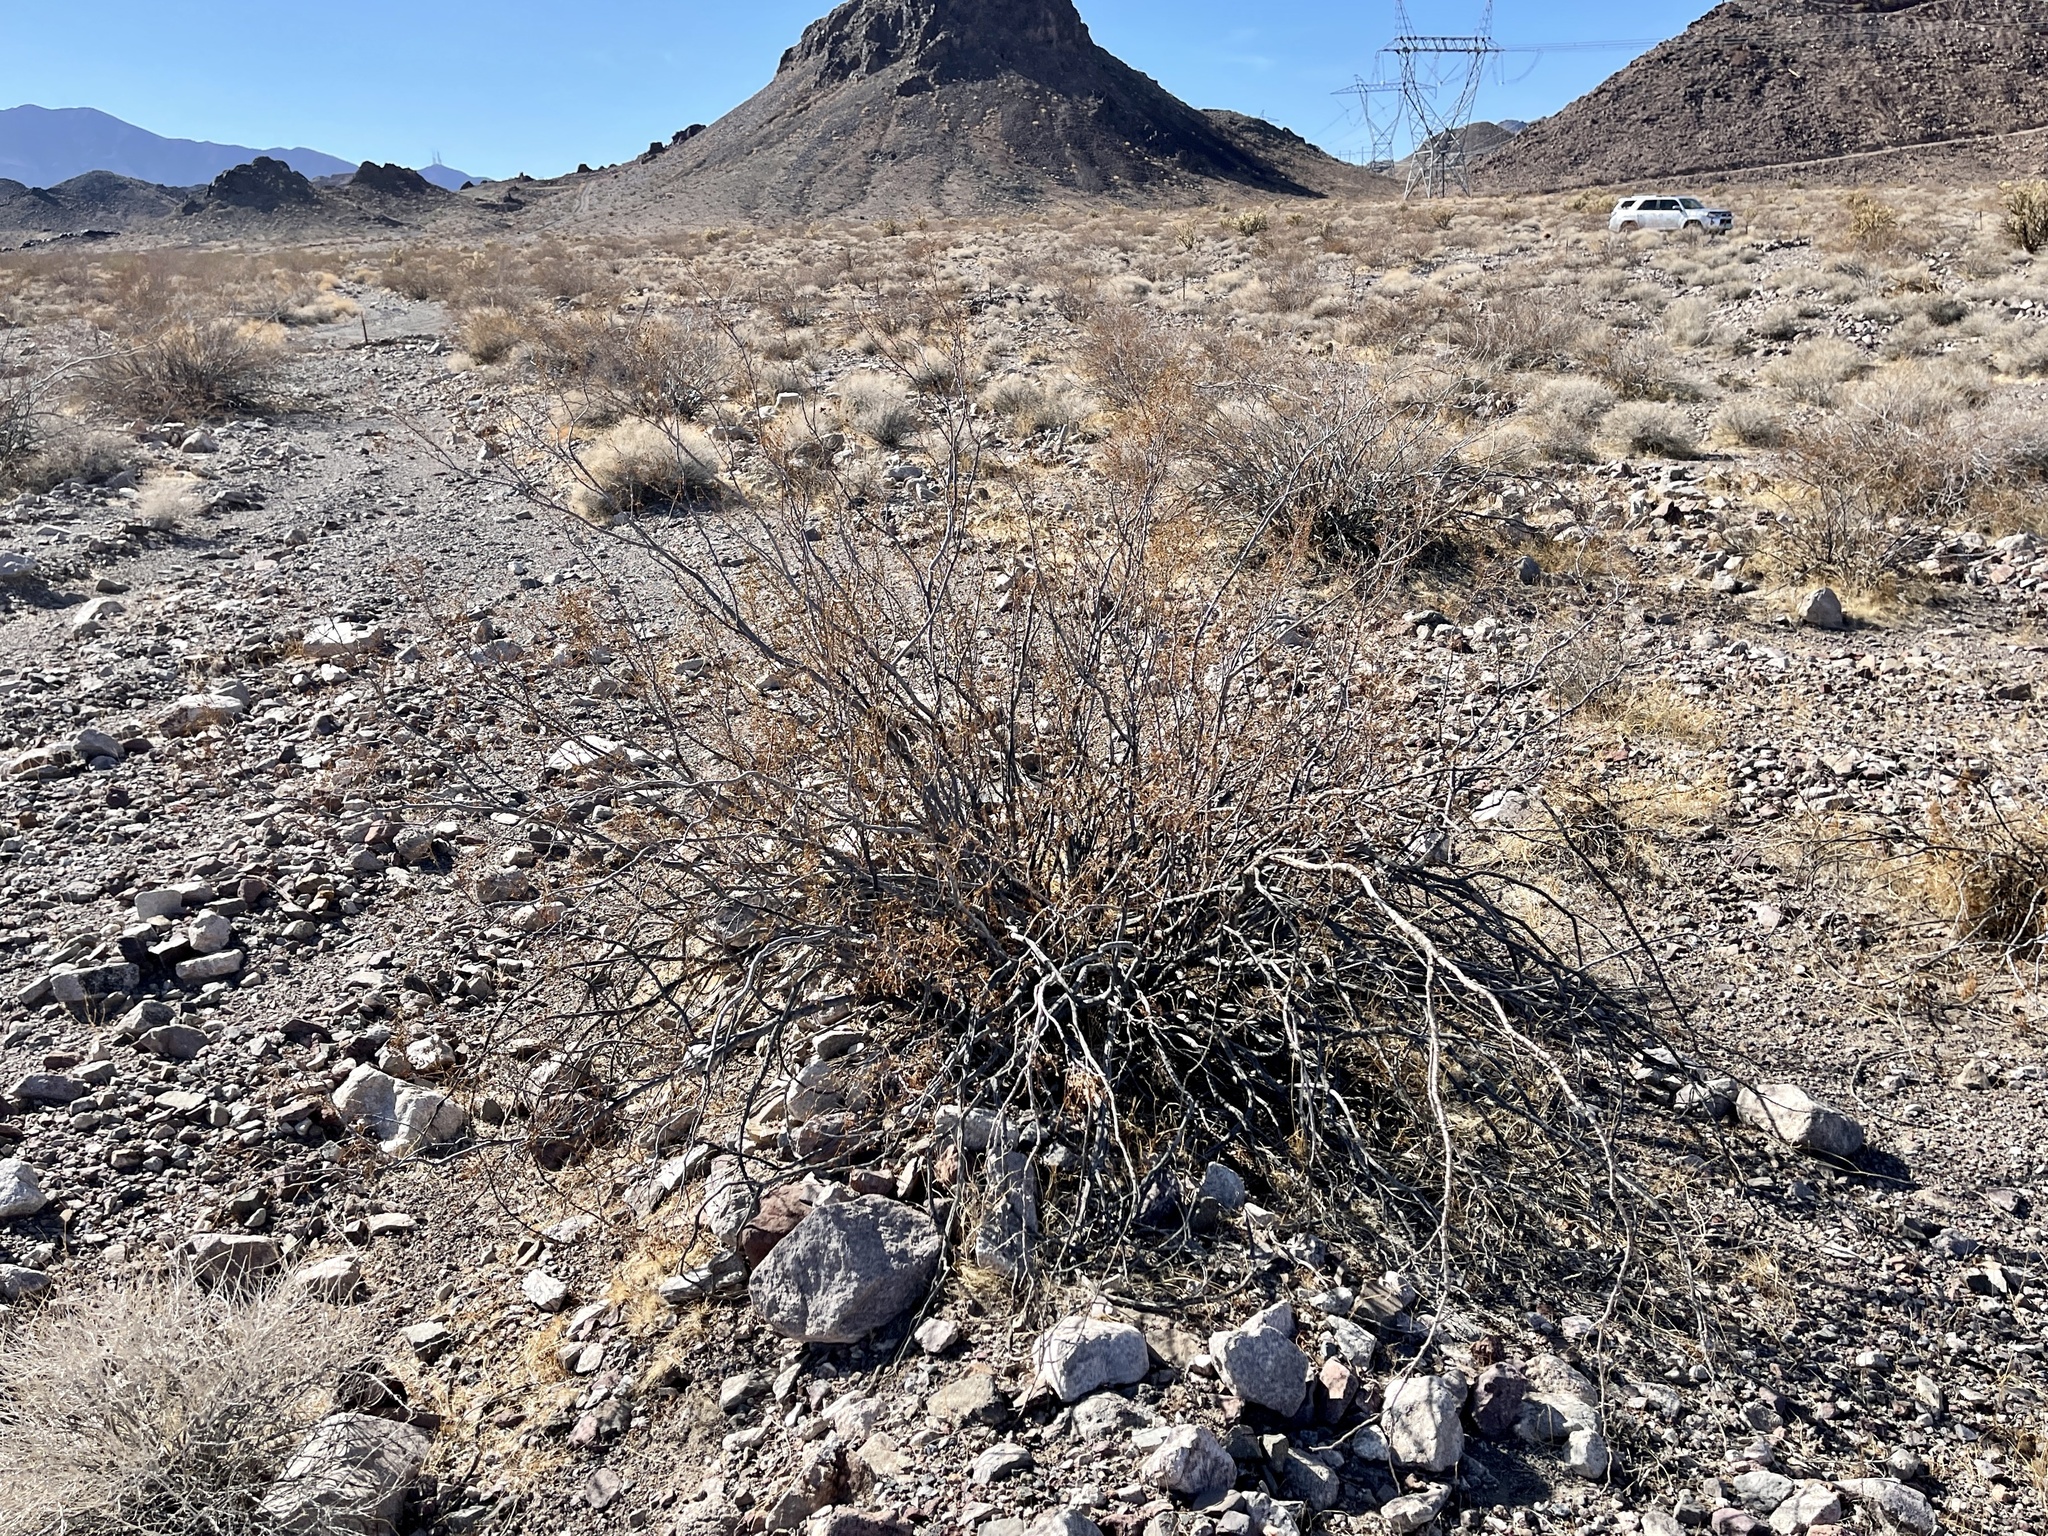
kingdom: Plantae
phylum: Tracheophyta
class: Magnoliopsida
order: Zygophyllales
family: Zygophyllaceae
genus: Larrea
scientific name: Larrea tridentata
